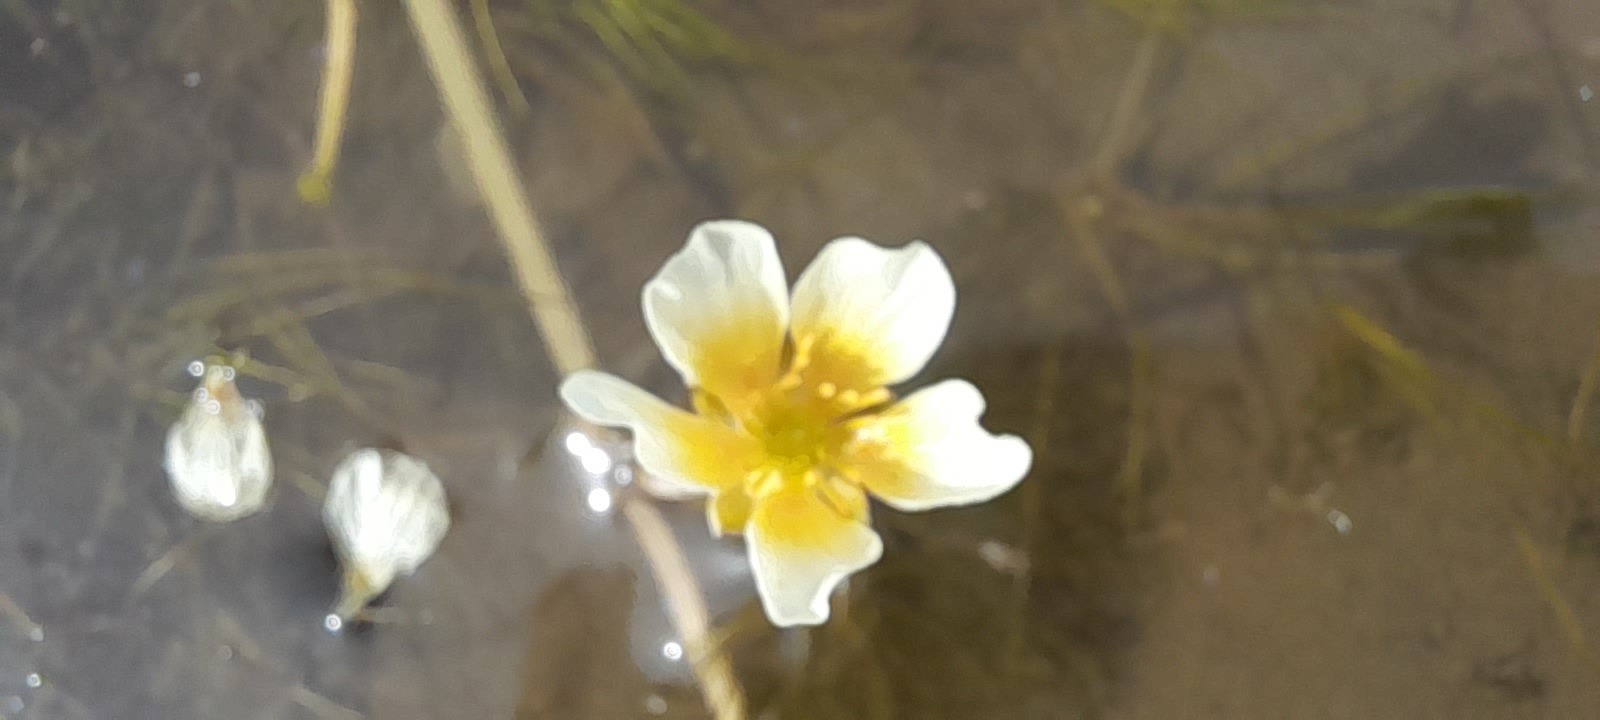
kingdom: Plantae
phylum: Tracheophyta
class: Magnoliopsida
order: Ranunculales
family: Ranunculaceae
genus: Ranunculus
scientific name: Ranunculus trichophyllus
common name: Thread-leaved water-crowfoot
